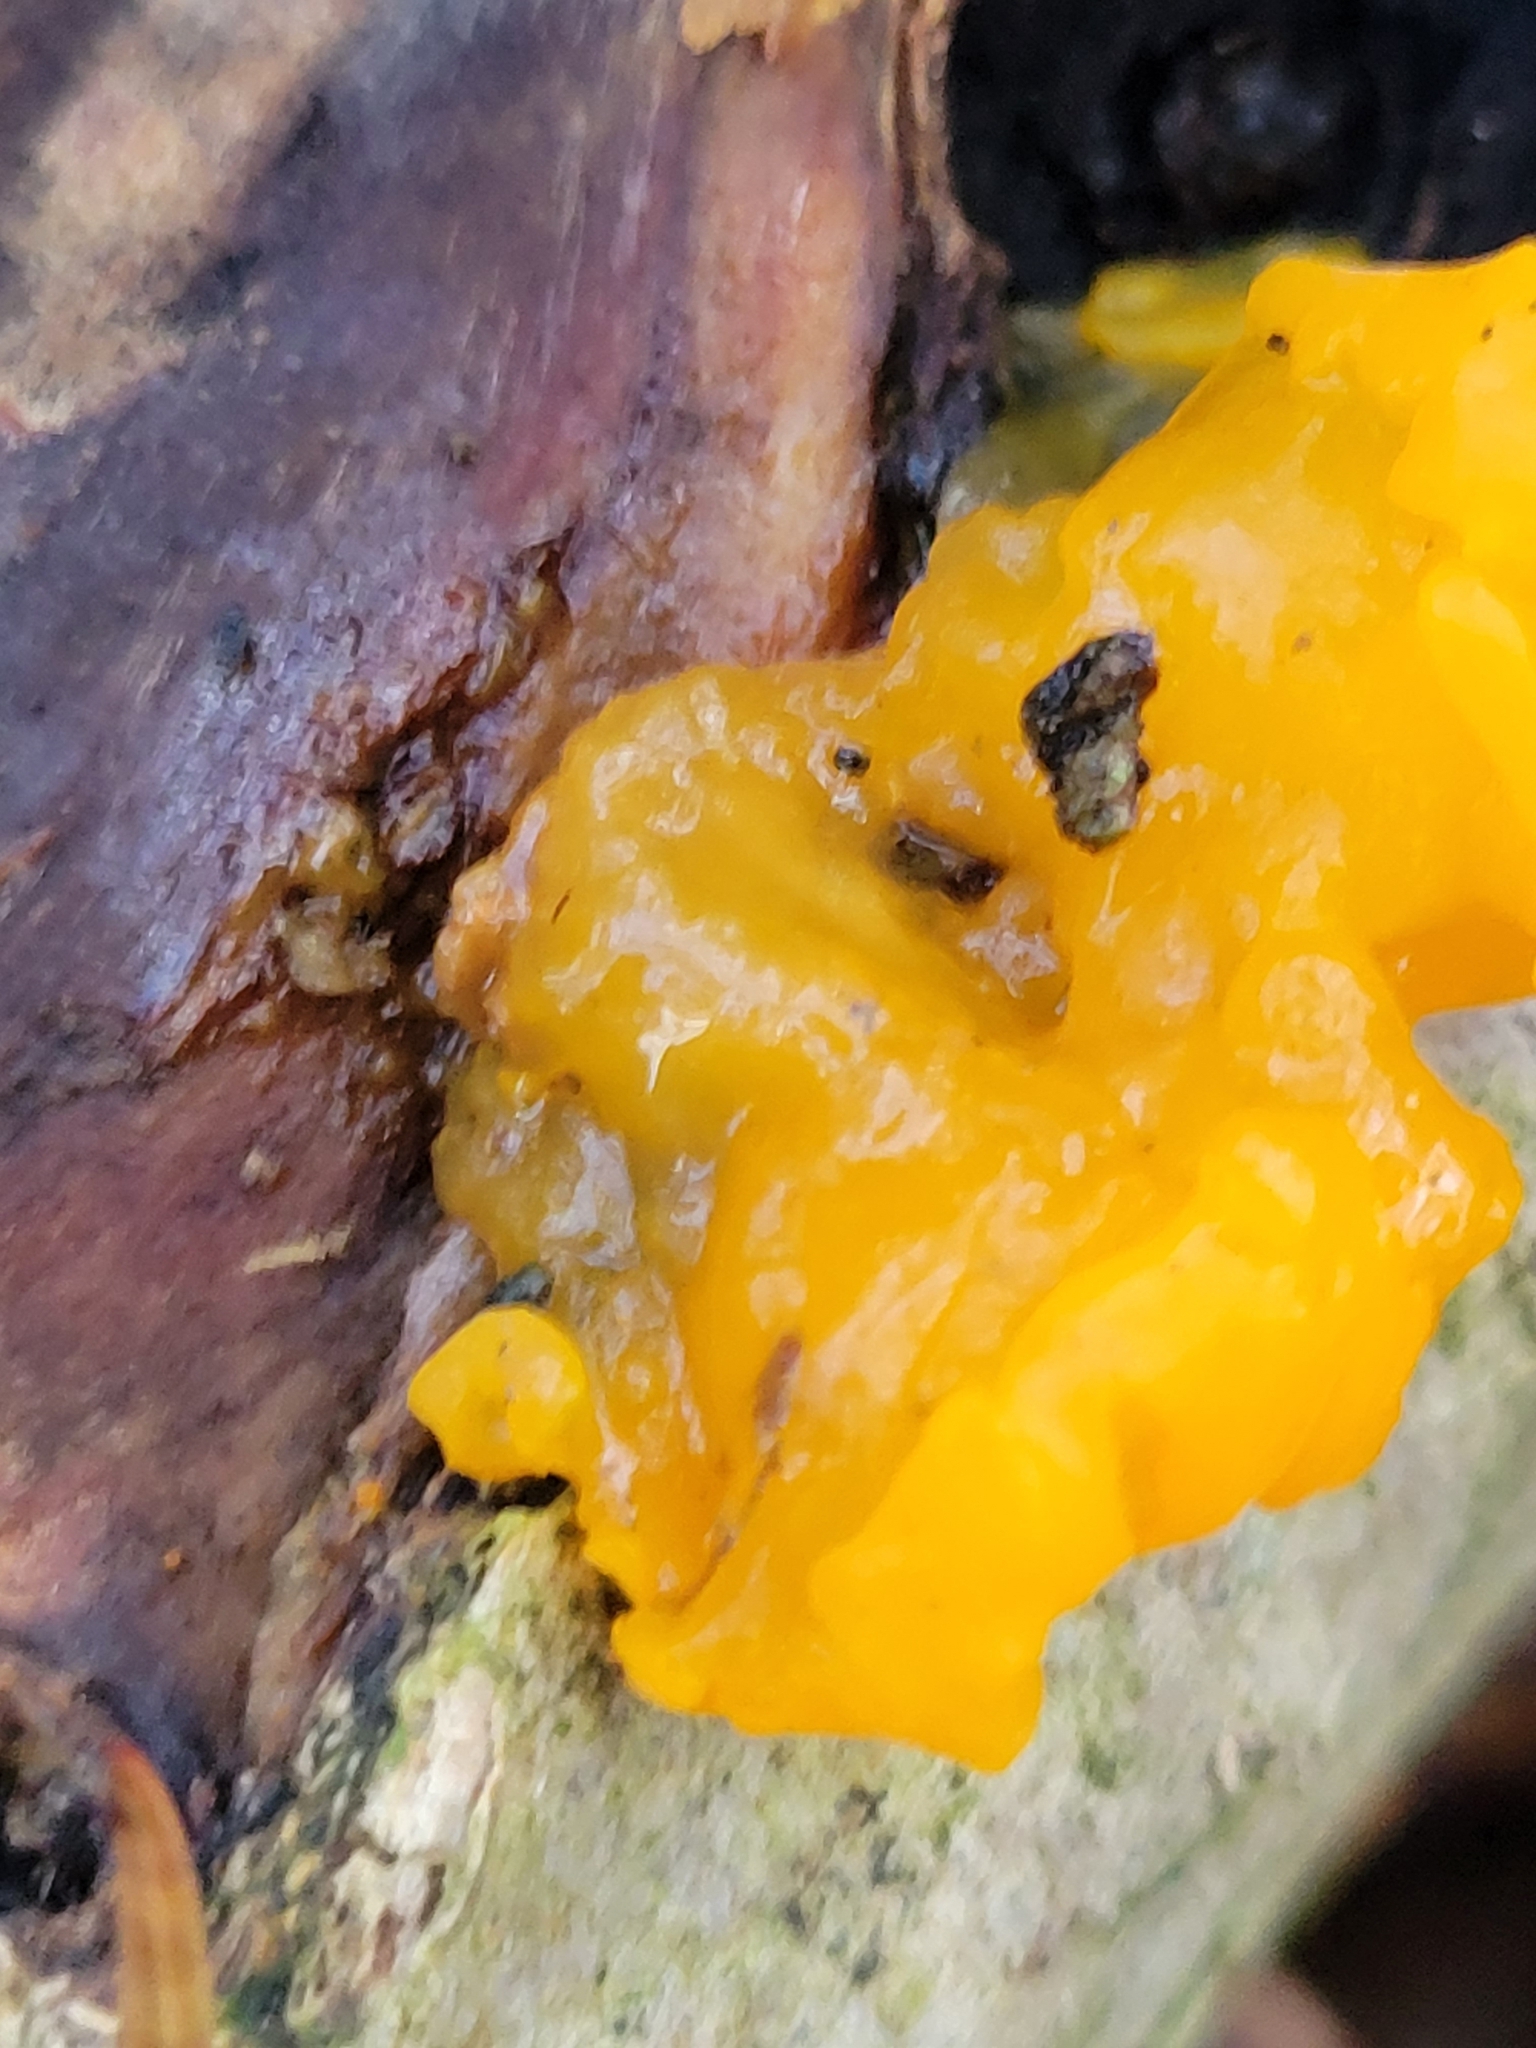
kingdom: Fungi
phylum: Basidiomycota
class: Tremellomycetes
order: Tremellales
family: Tremellaceae
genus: Tremella
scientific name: Tremella mesenterica
